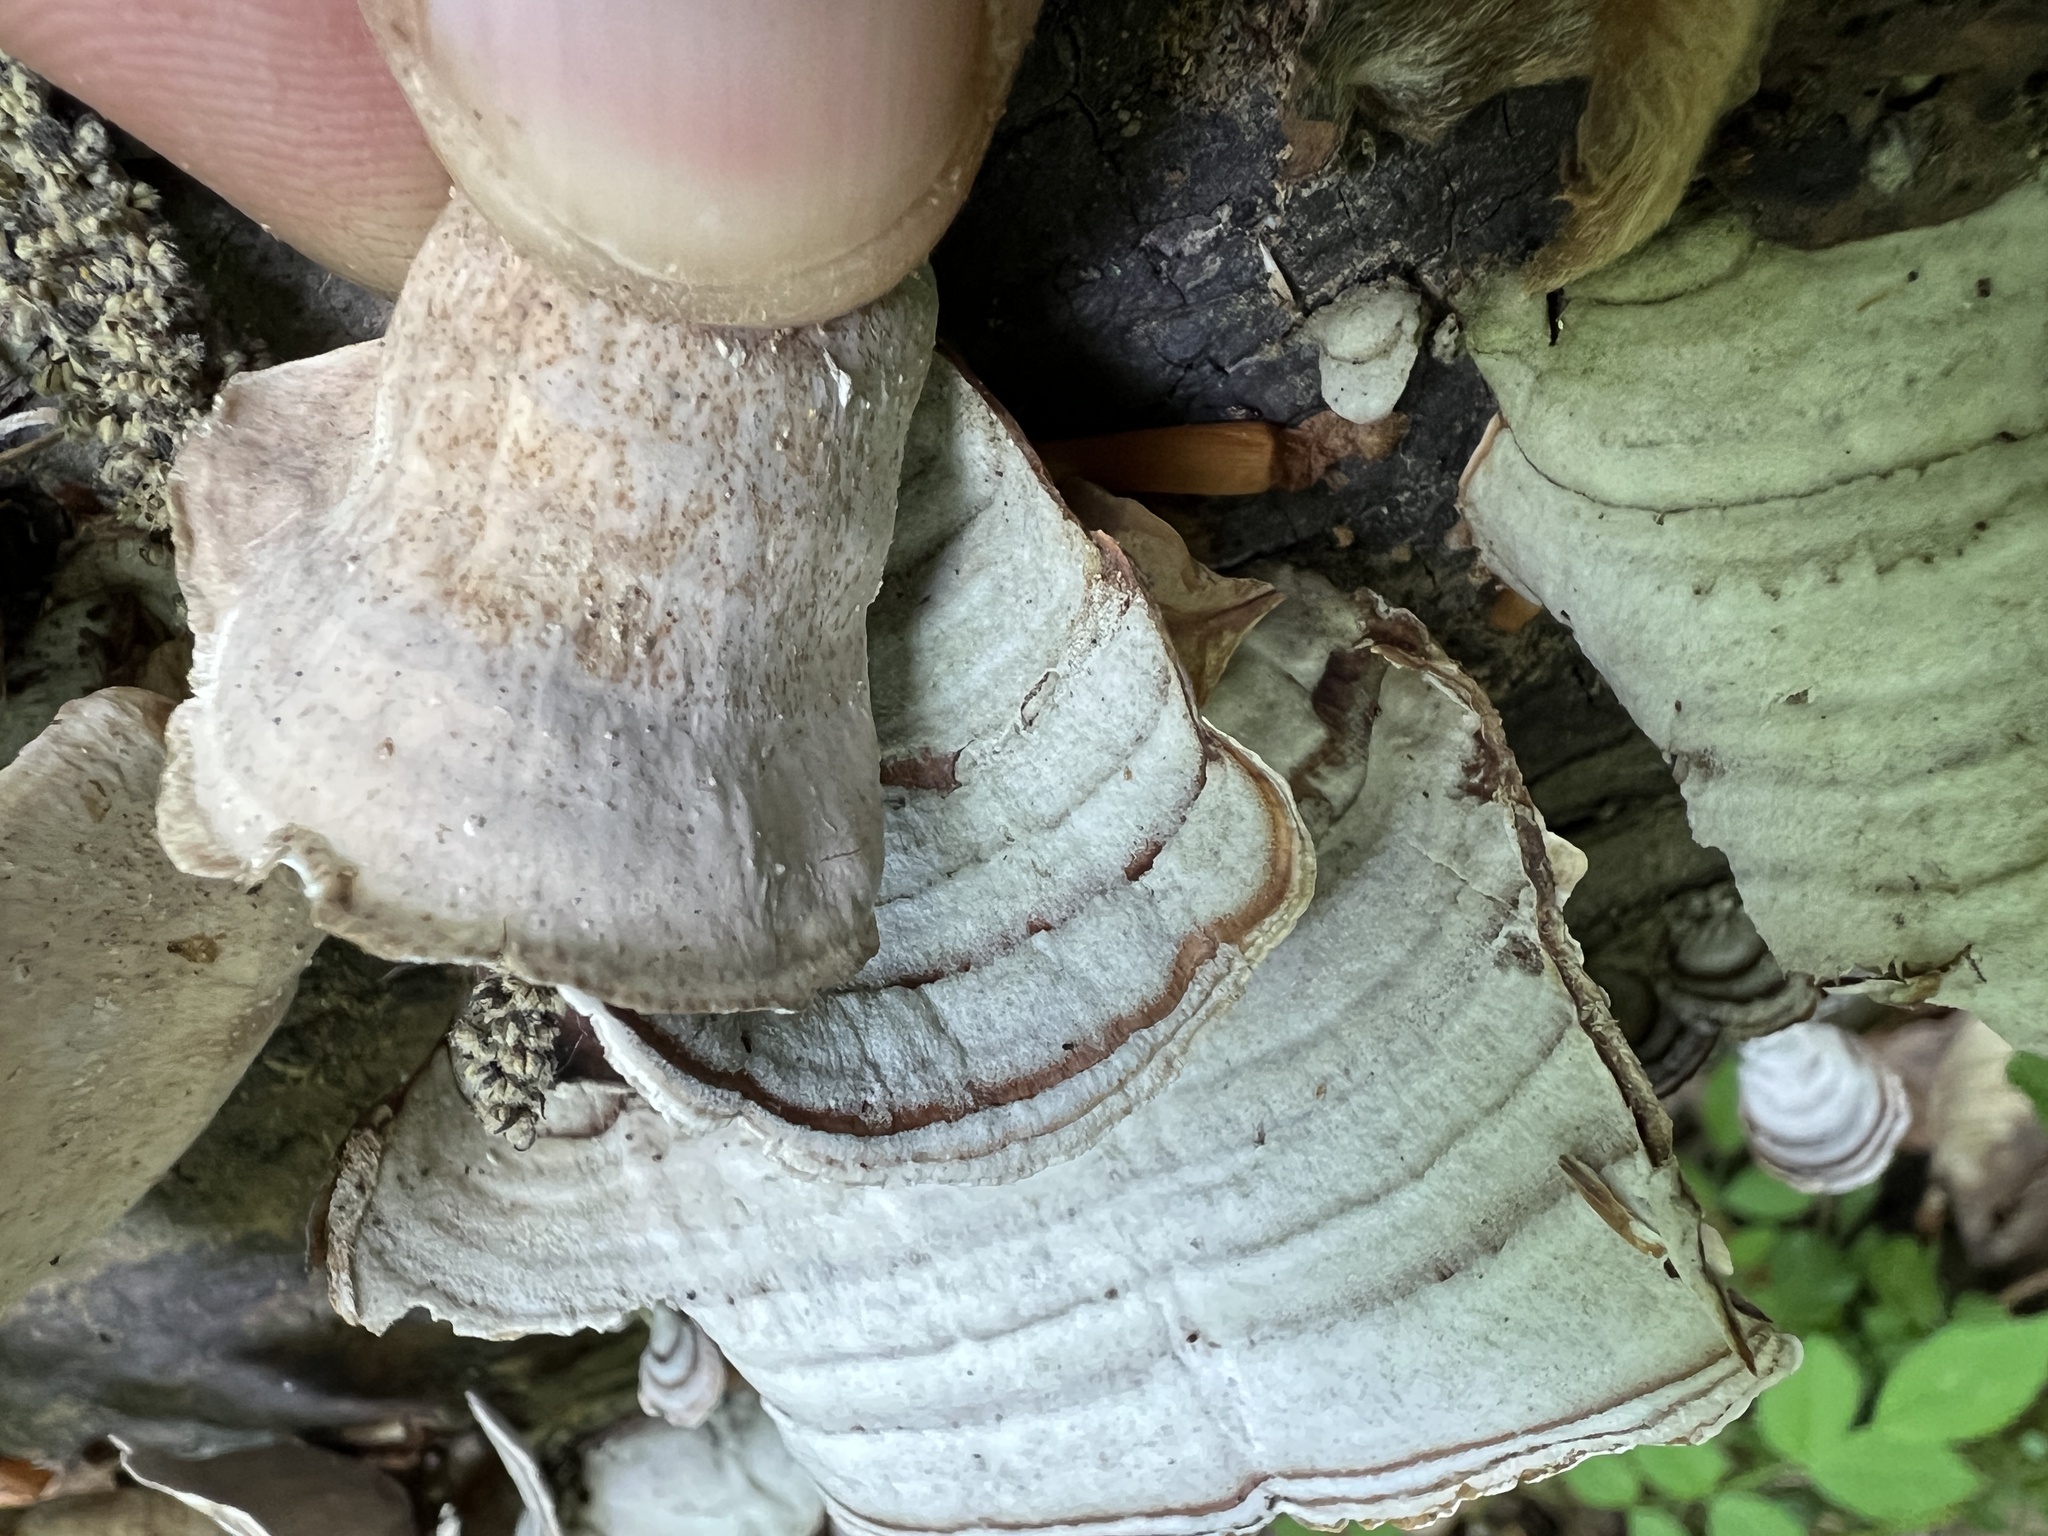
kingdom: Fungi
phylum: Basidiomycota
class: Agaricomycetes
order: Russulales
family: Stereaceae
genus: Stereum
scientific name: Stereum lobatum
